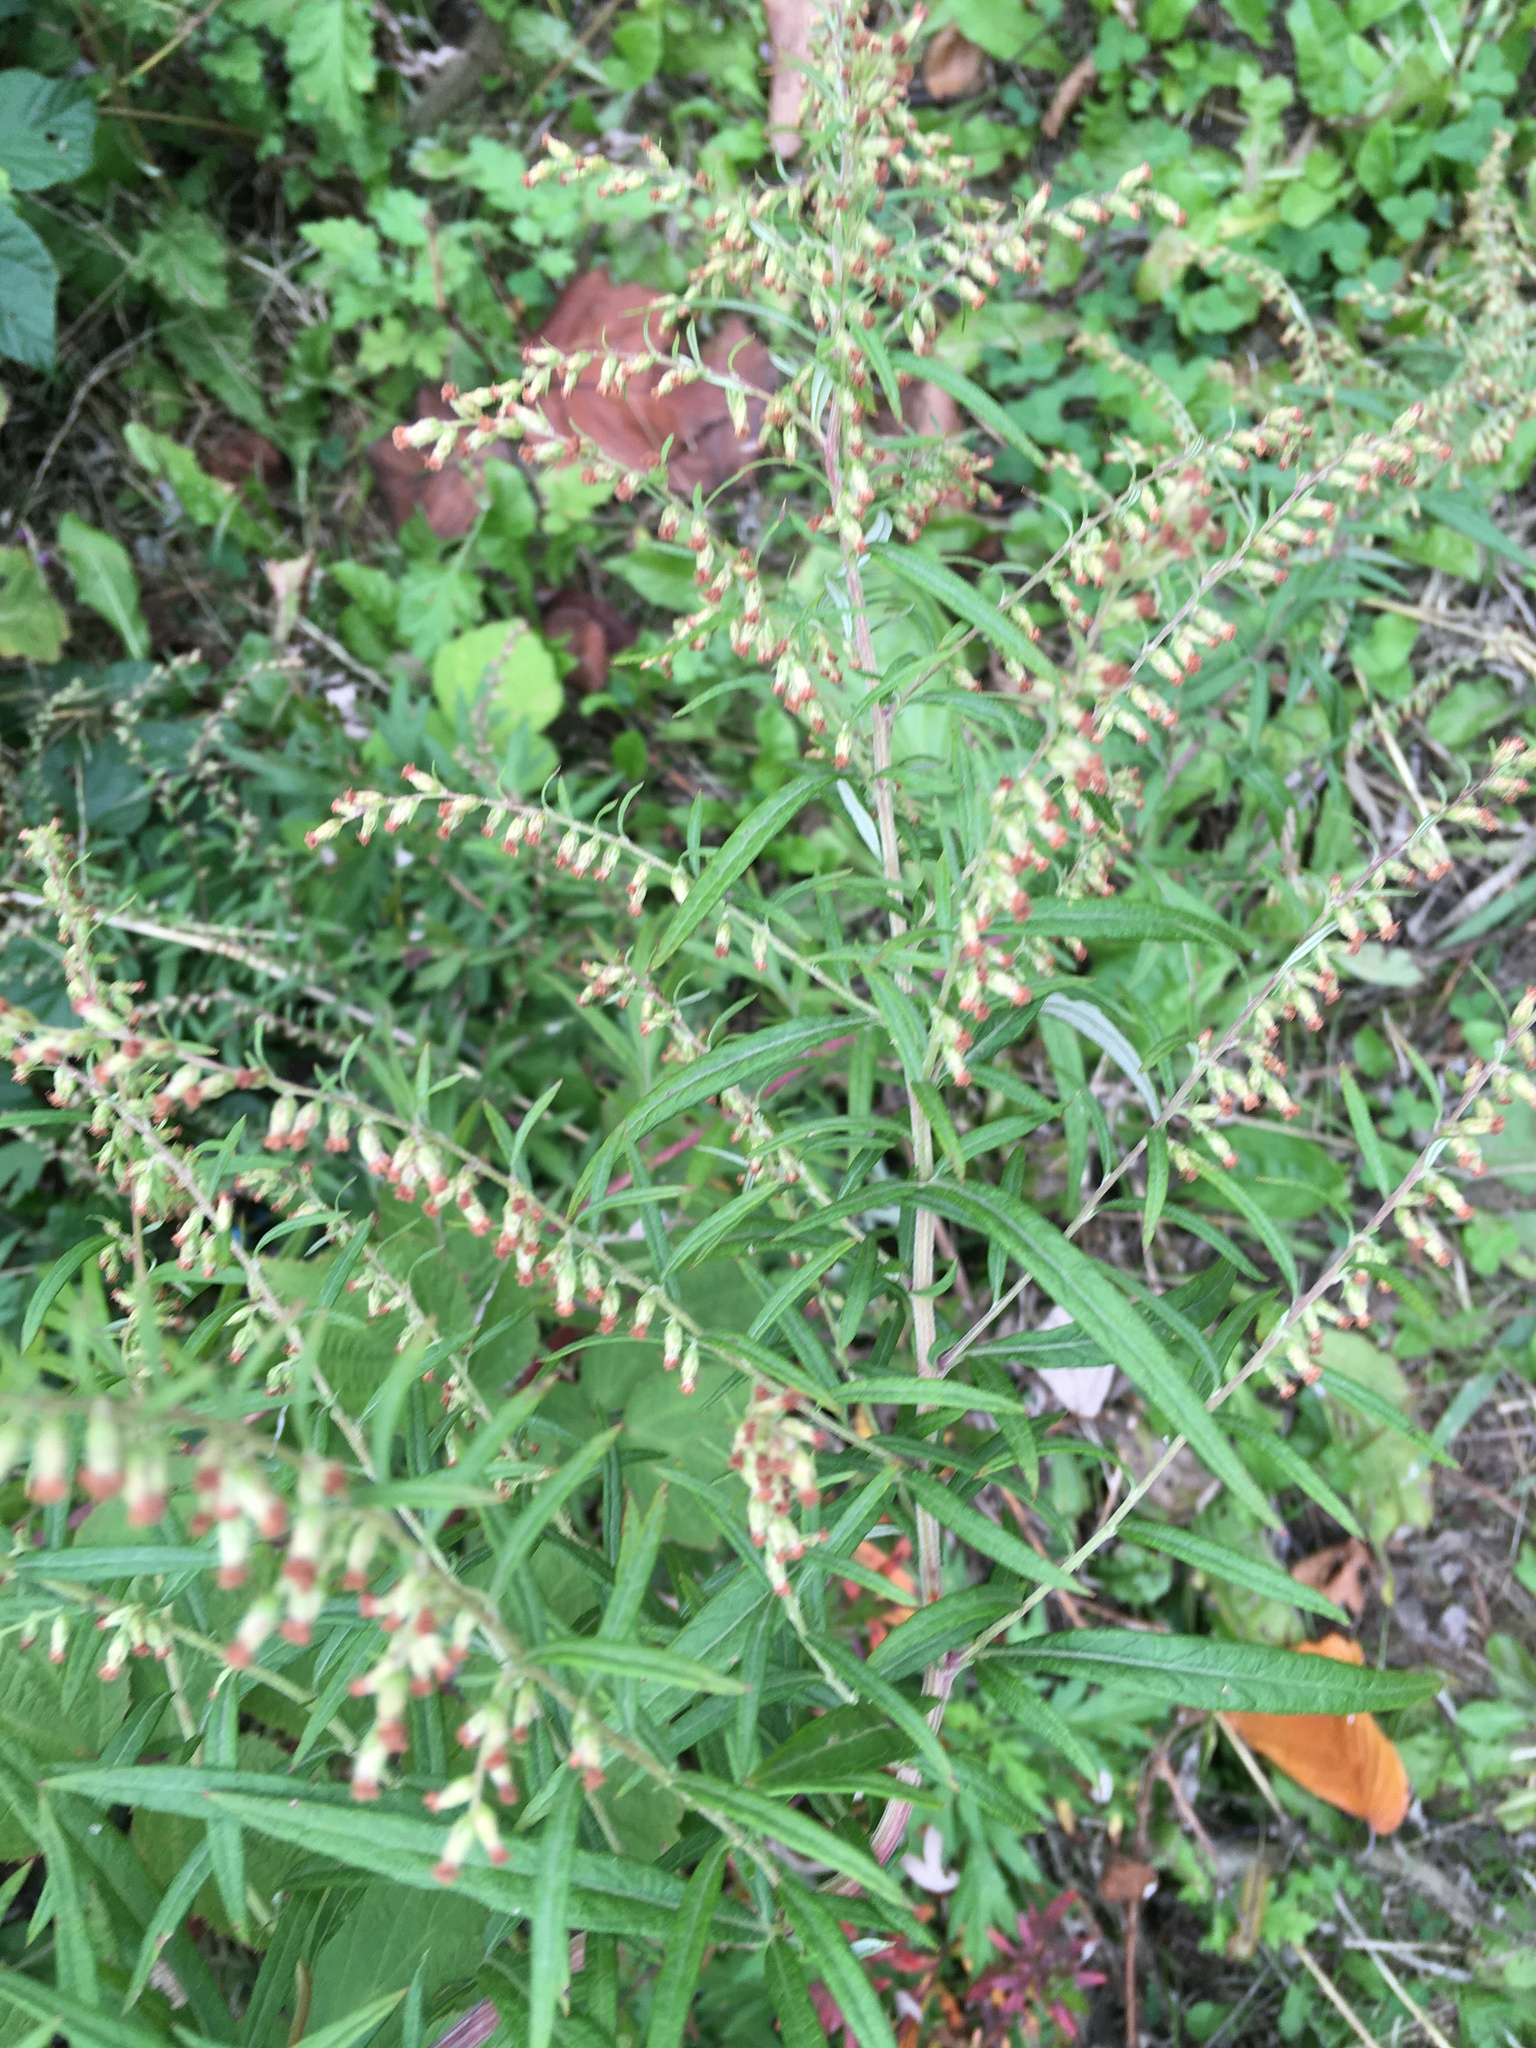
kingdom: Plantae
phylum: Tracheophyta
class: Magnoliopsida
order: Asterales
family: Asteraceae
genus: Artemisia
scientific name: Artemisia vulgaris
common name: Mugwort
